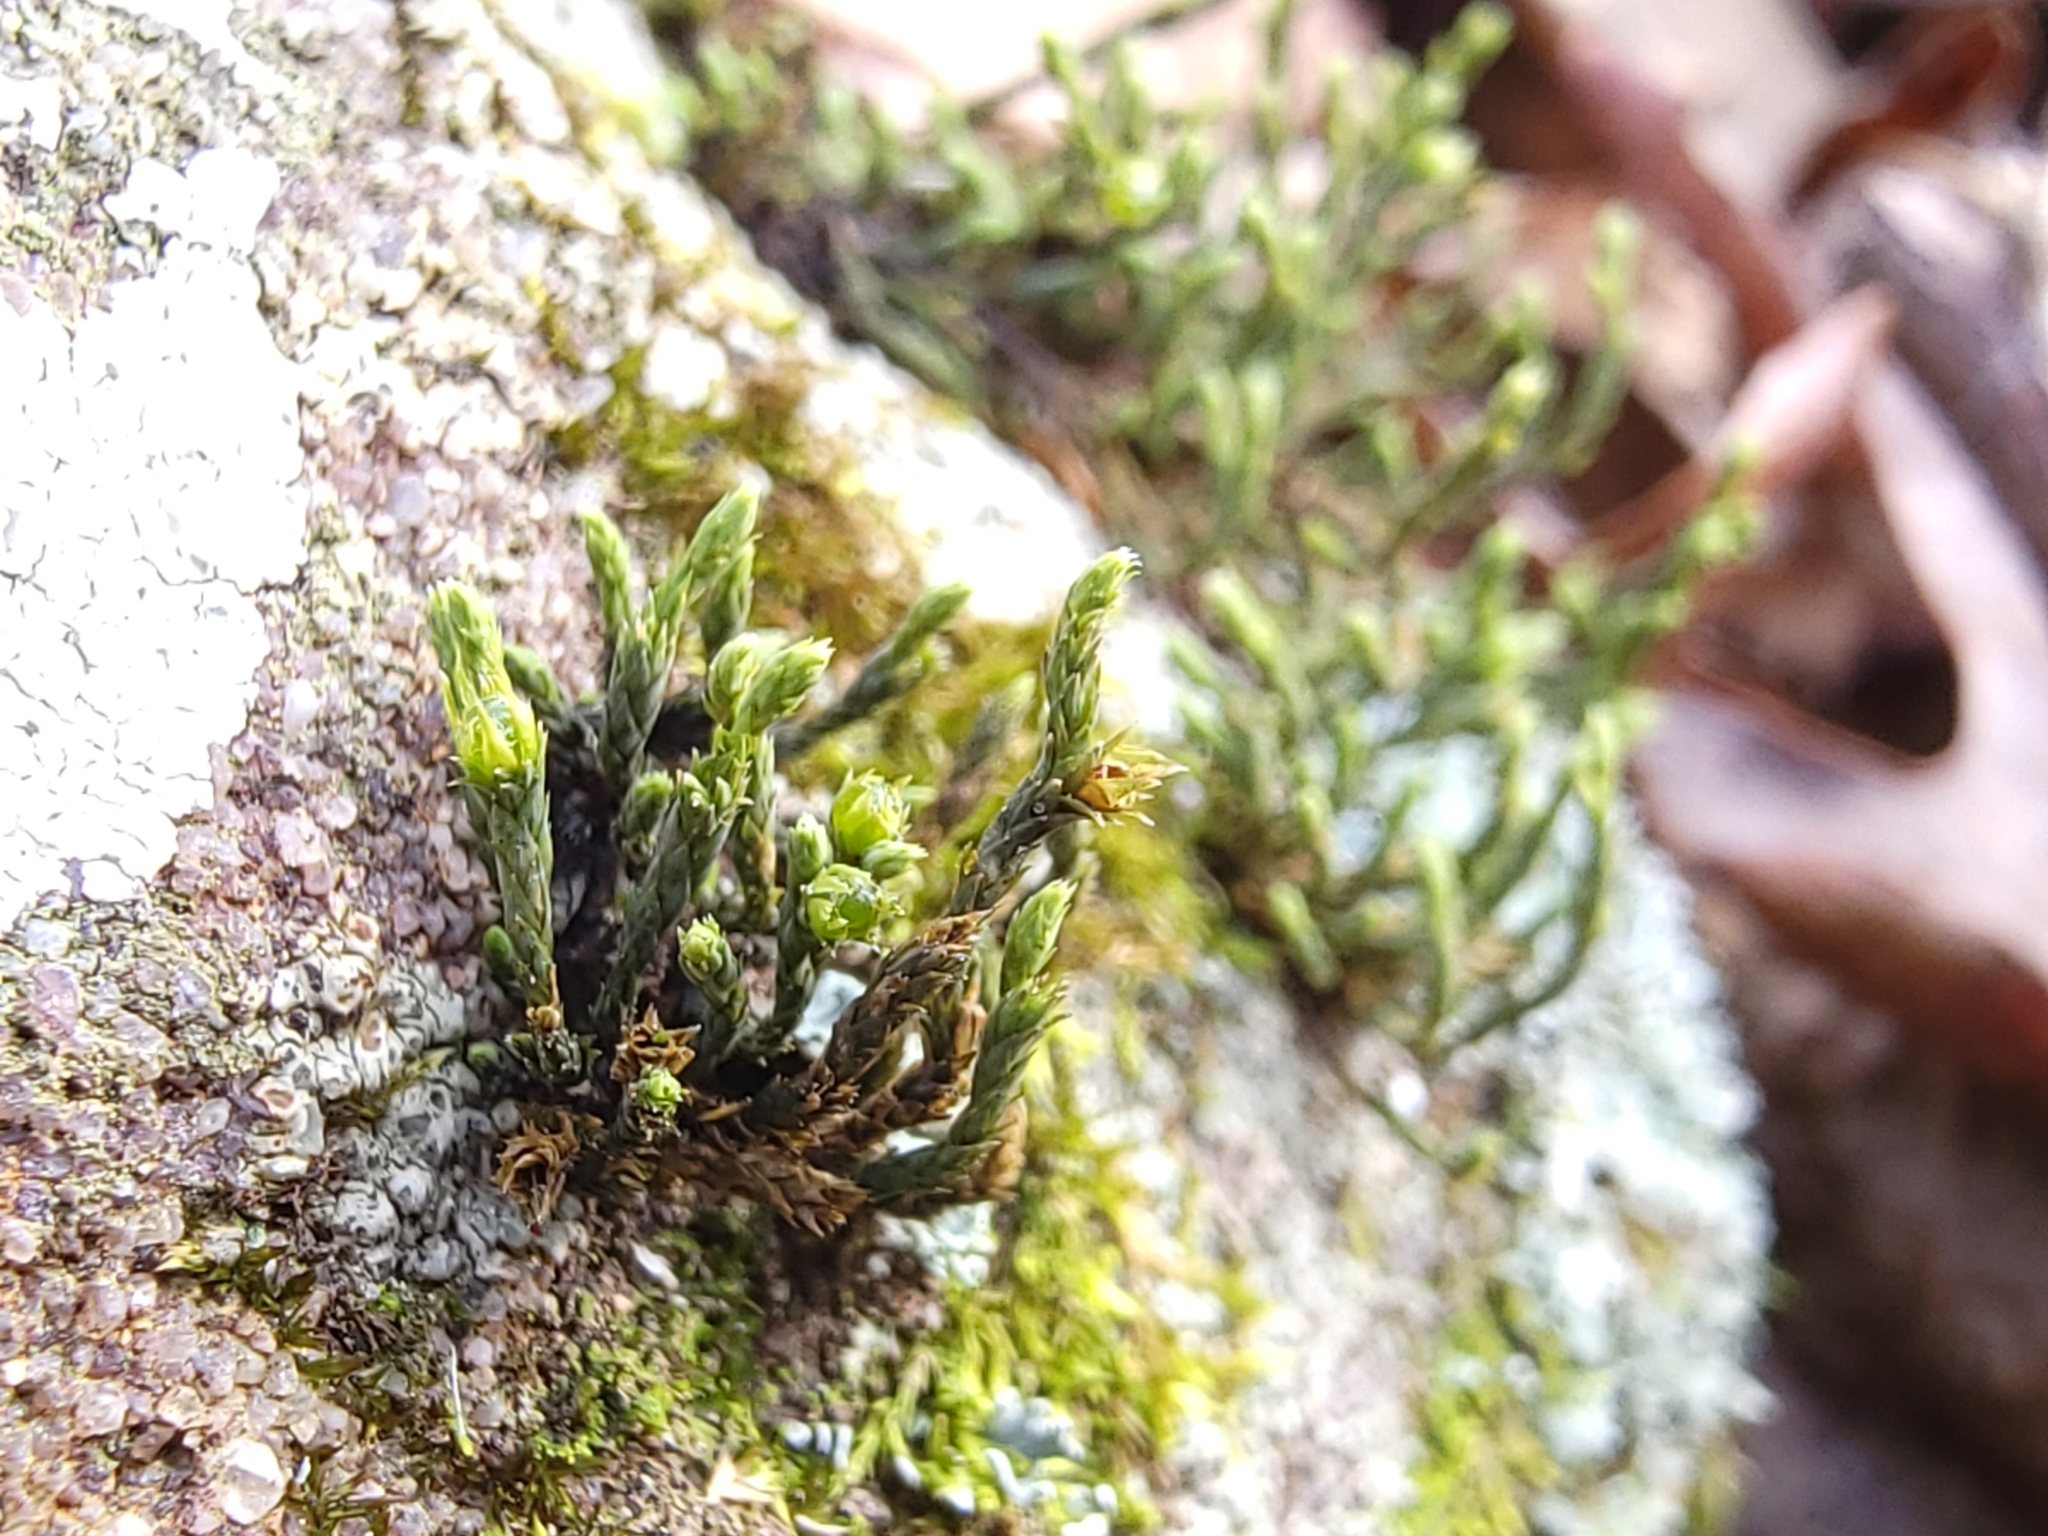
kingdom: Plantae
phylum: Bryophyta
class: Bryopsida
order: Hedwigiales
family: Hedwigiaceae
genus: Hedwigia
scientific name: Hedwigia ciliata
